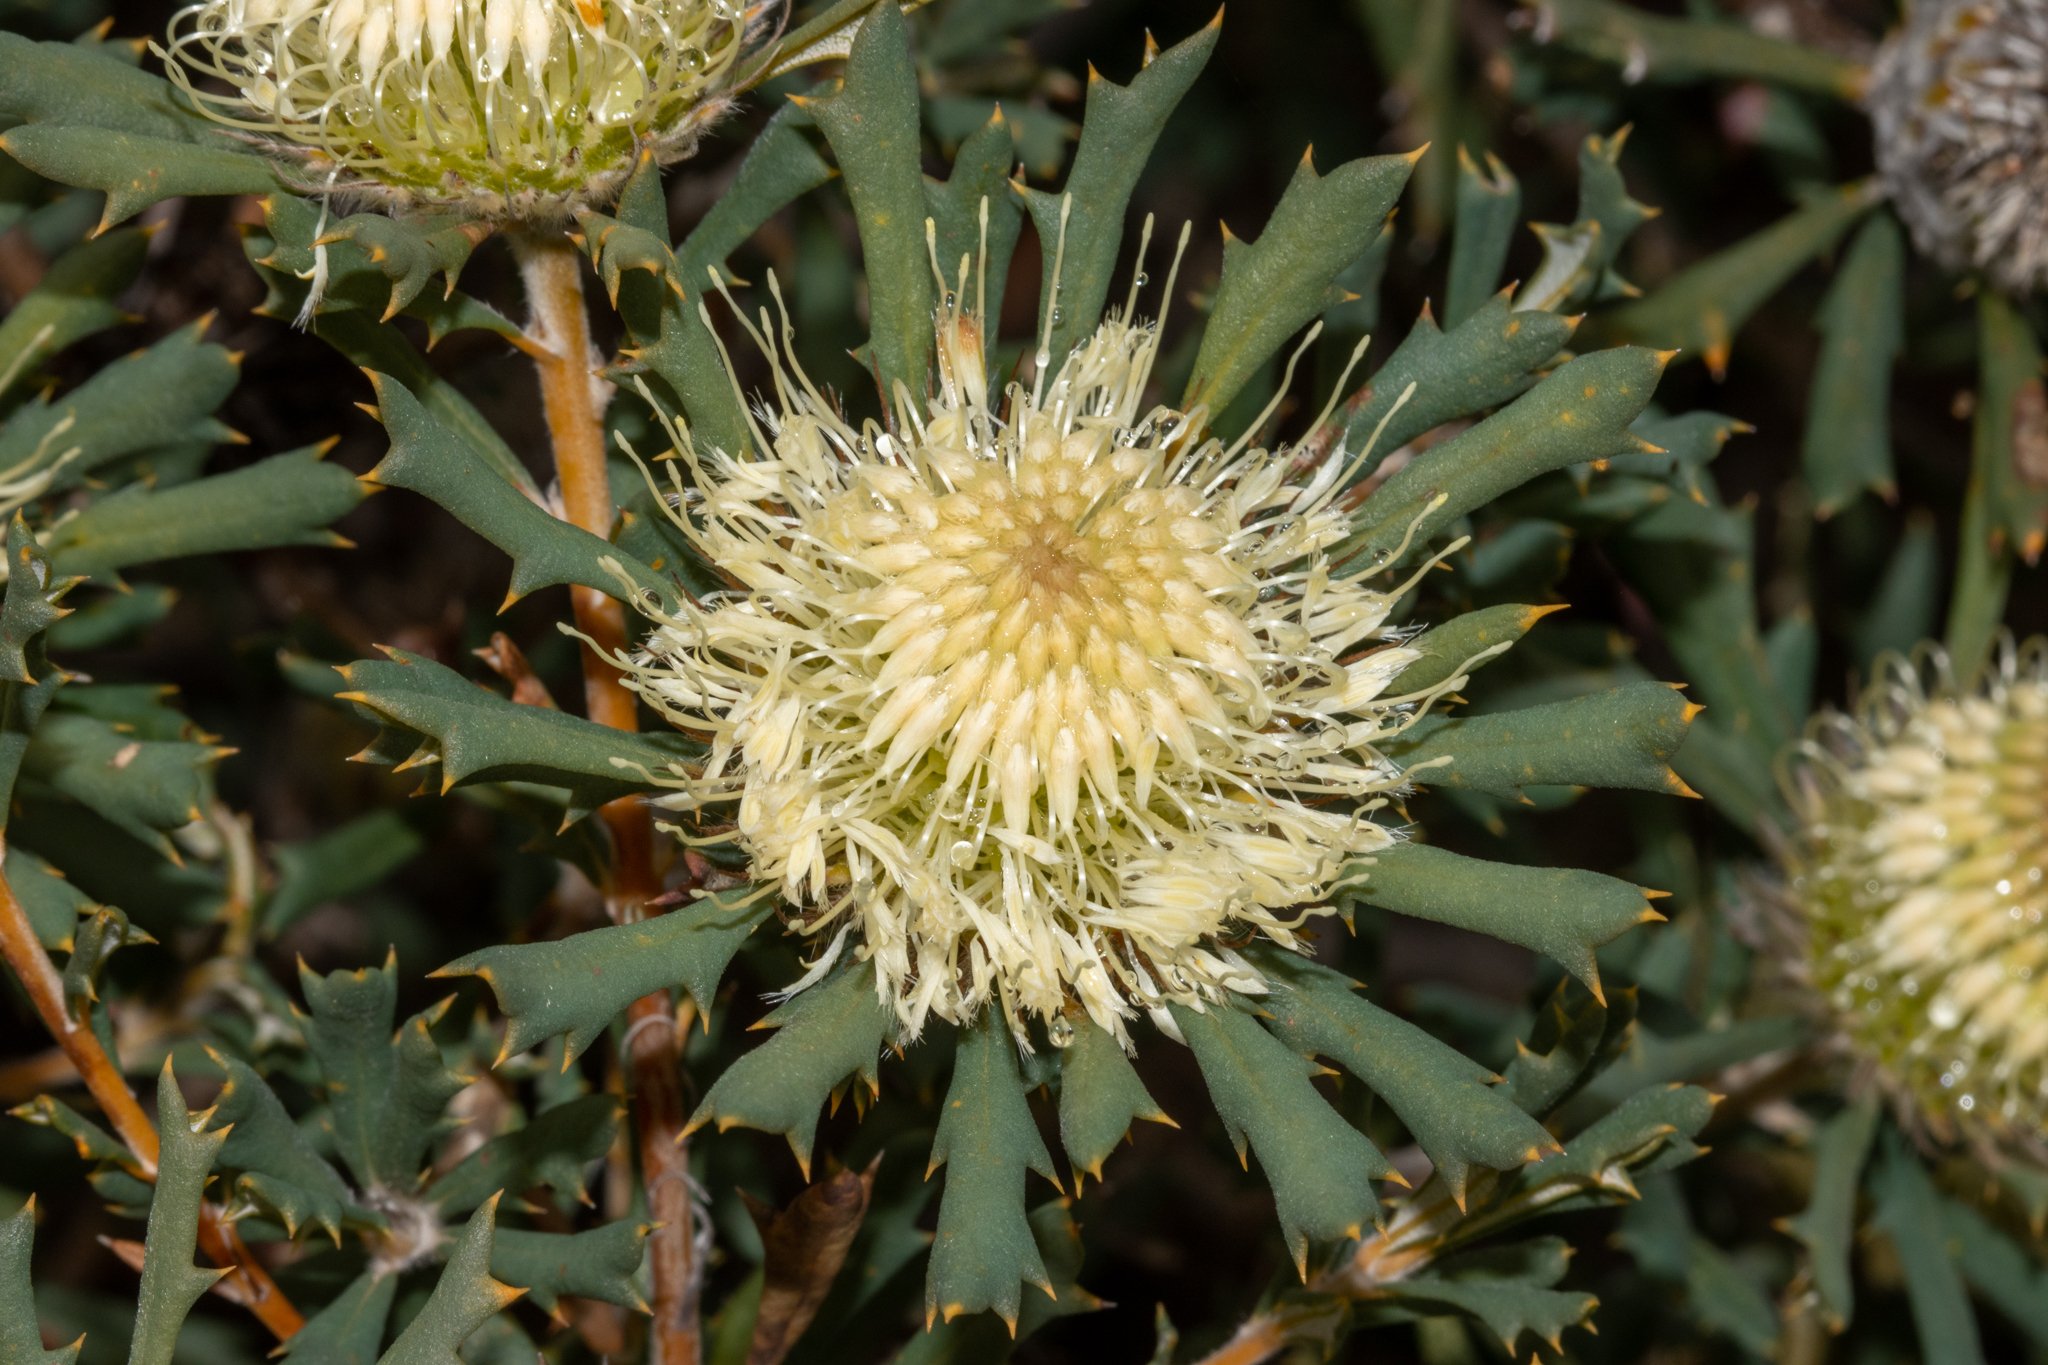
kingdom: Plantae
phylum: Tracheophyta
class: Magnoliopsida
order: Proteales
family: Proteaceae
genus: Banksia
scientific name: Banksia carlinoides
